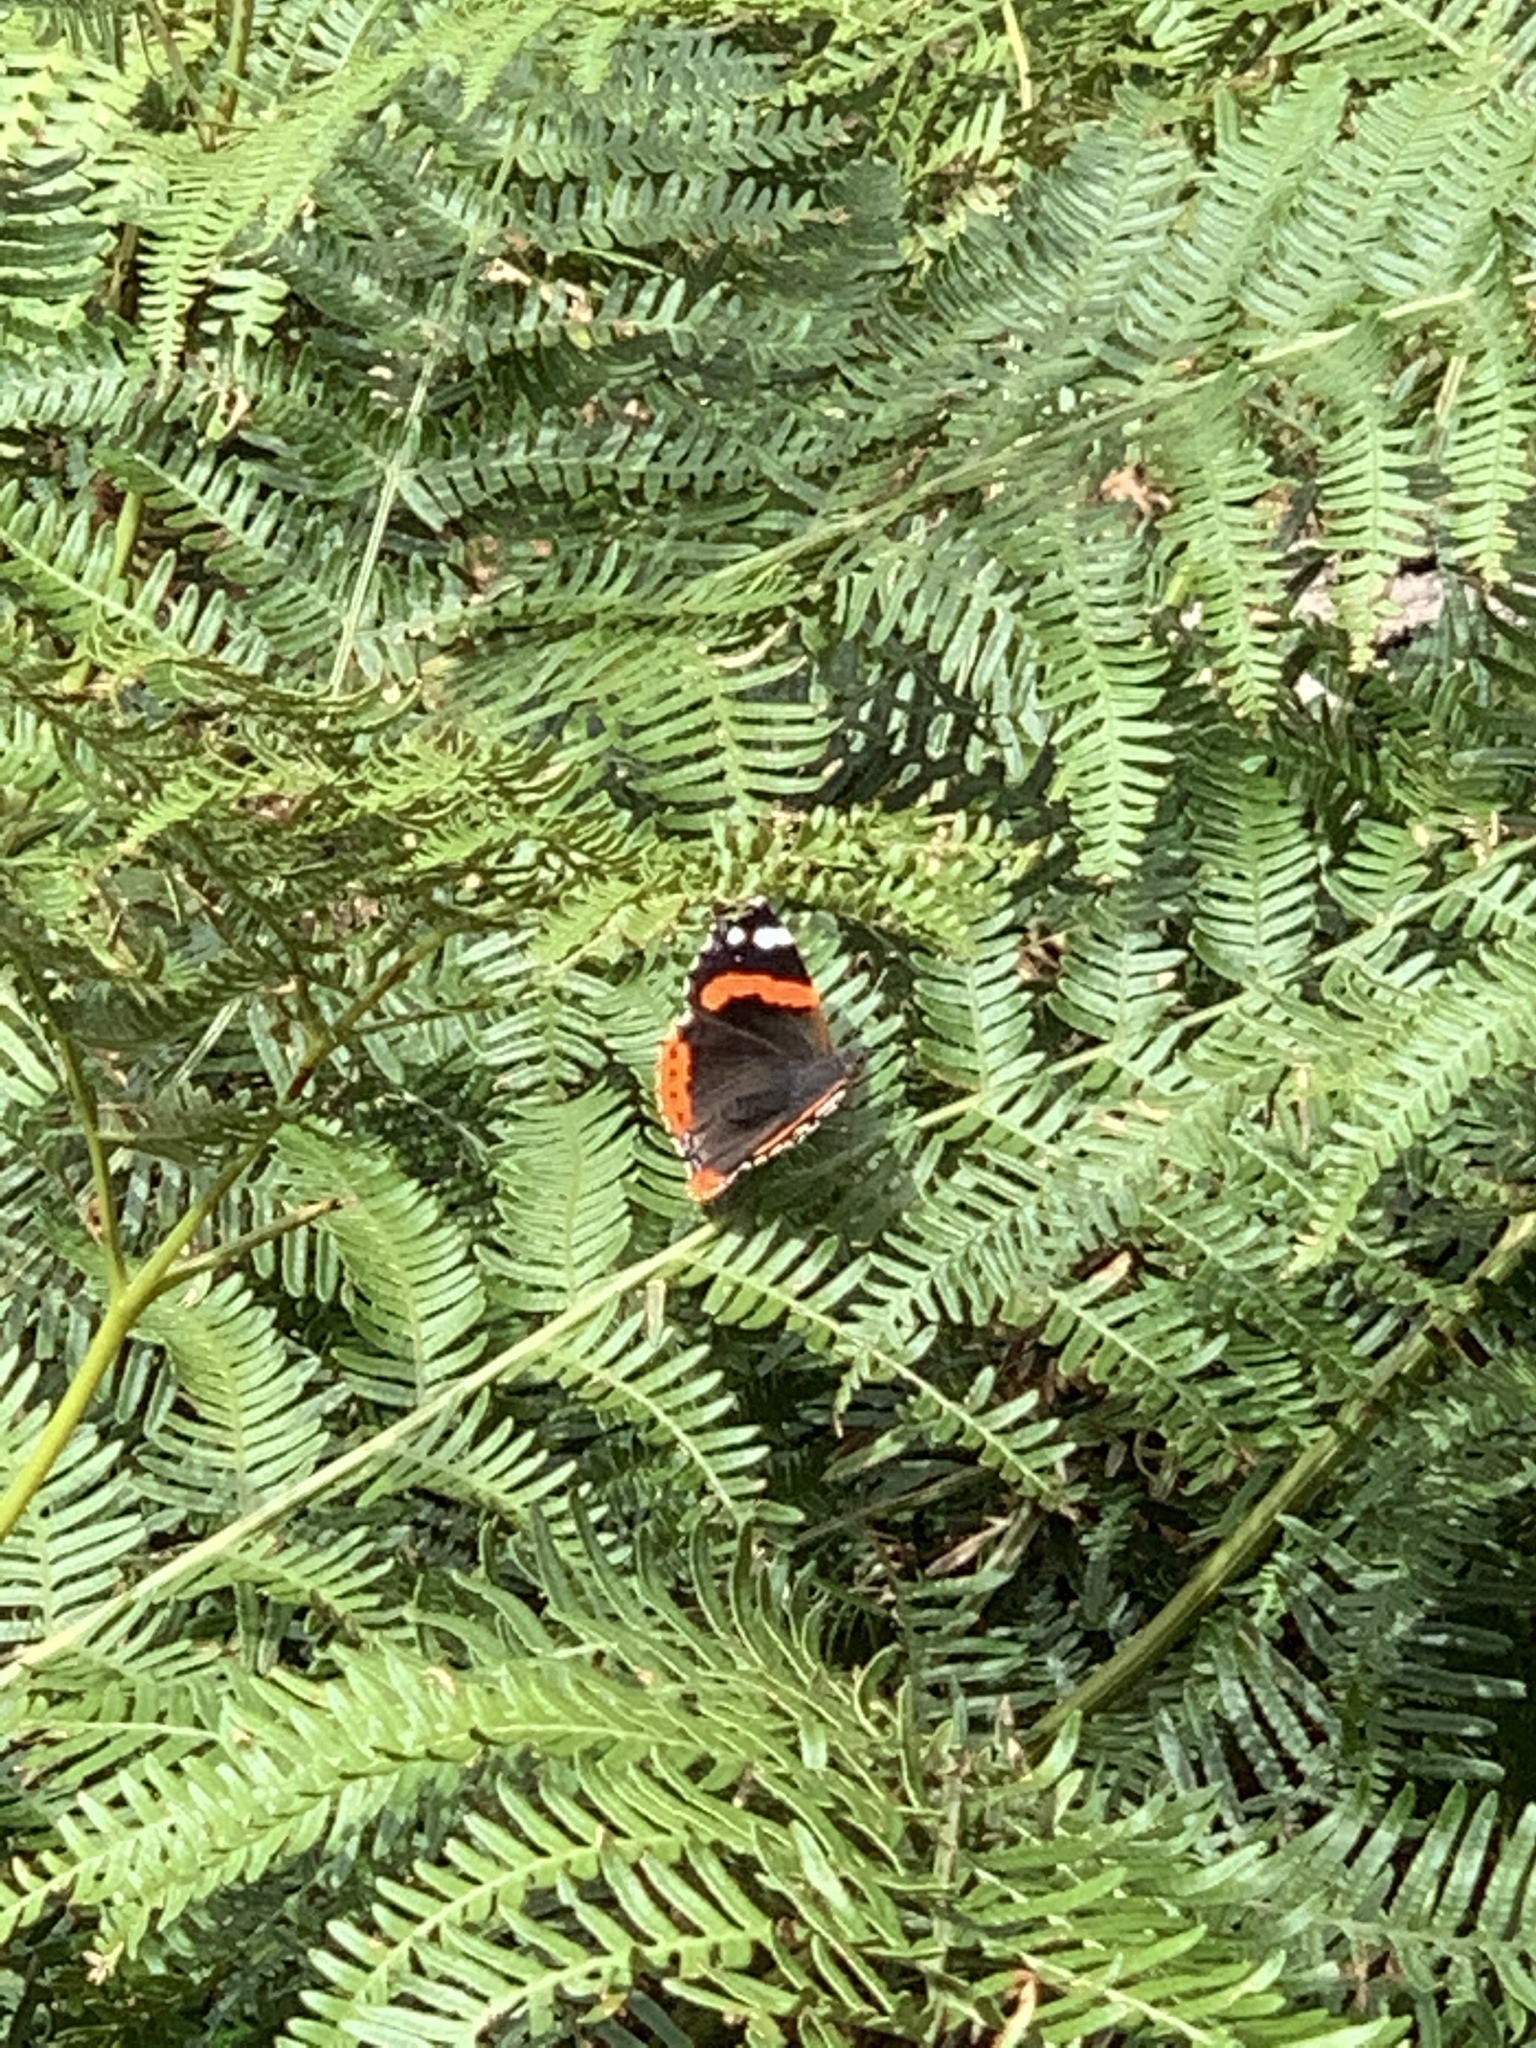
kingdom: Animalia
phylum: Arthropoda
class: Insecta
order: Lepidoptera
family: Nymphalidae
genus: Vanessa
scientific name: Vanessa atalanta
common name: Red admiral
